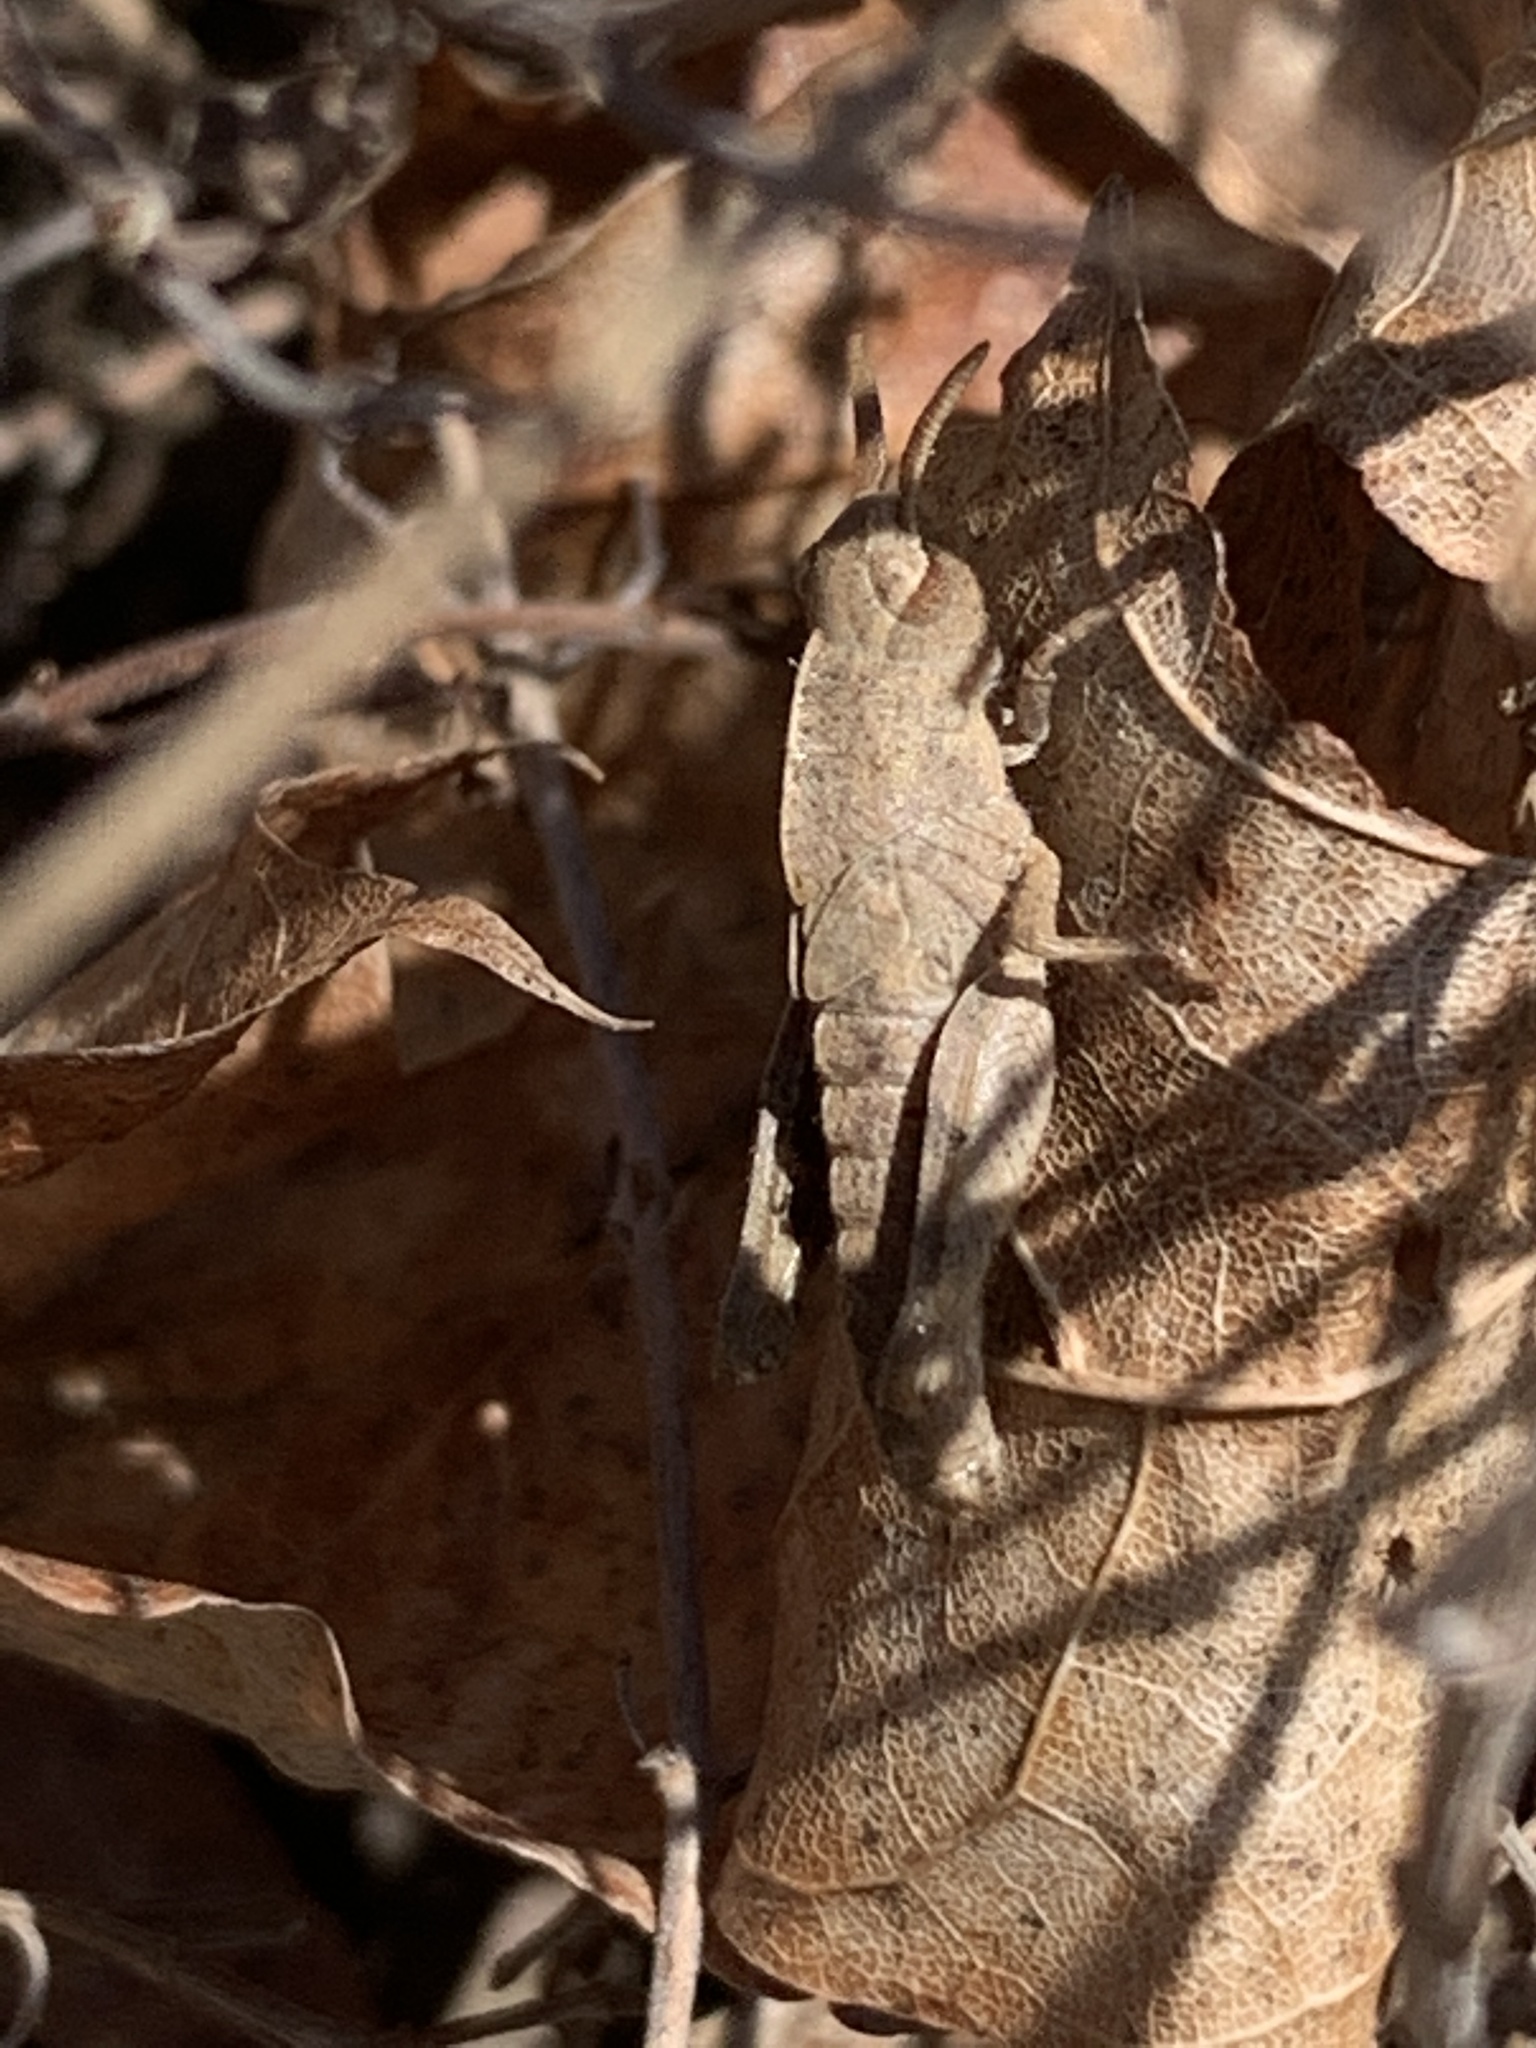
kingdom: Animalia
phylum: Arthropoda
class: Insecta
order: Orthoptera
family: Acrididae
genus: Chortophaga
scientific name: Chortophaga viridifasciata
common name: Green-striped grasshopper
